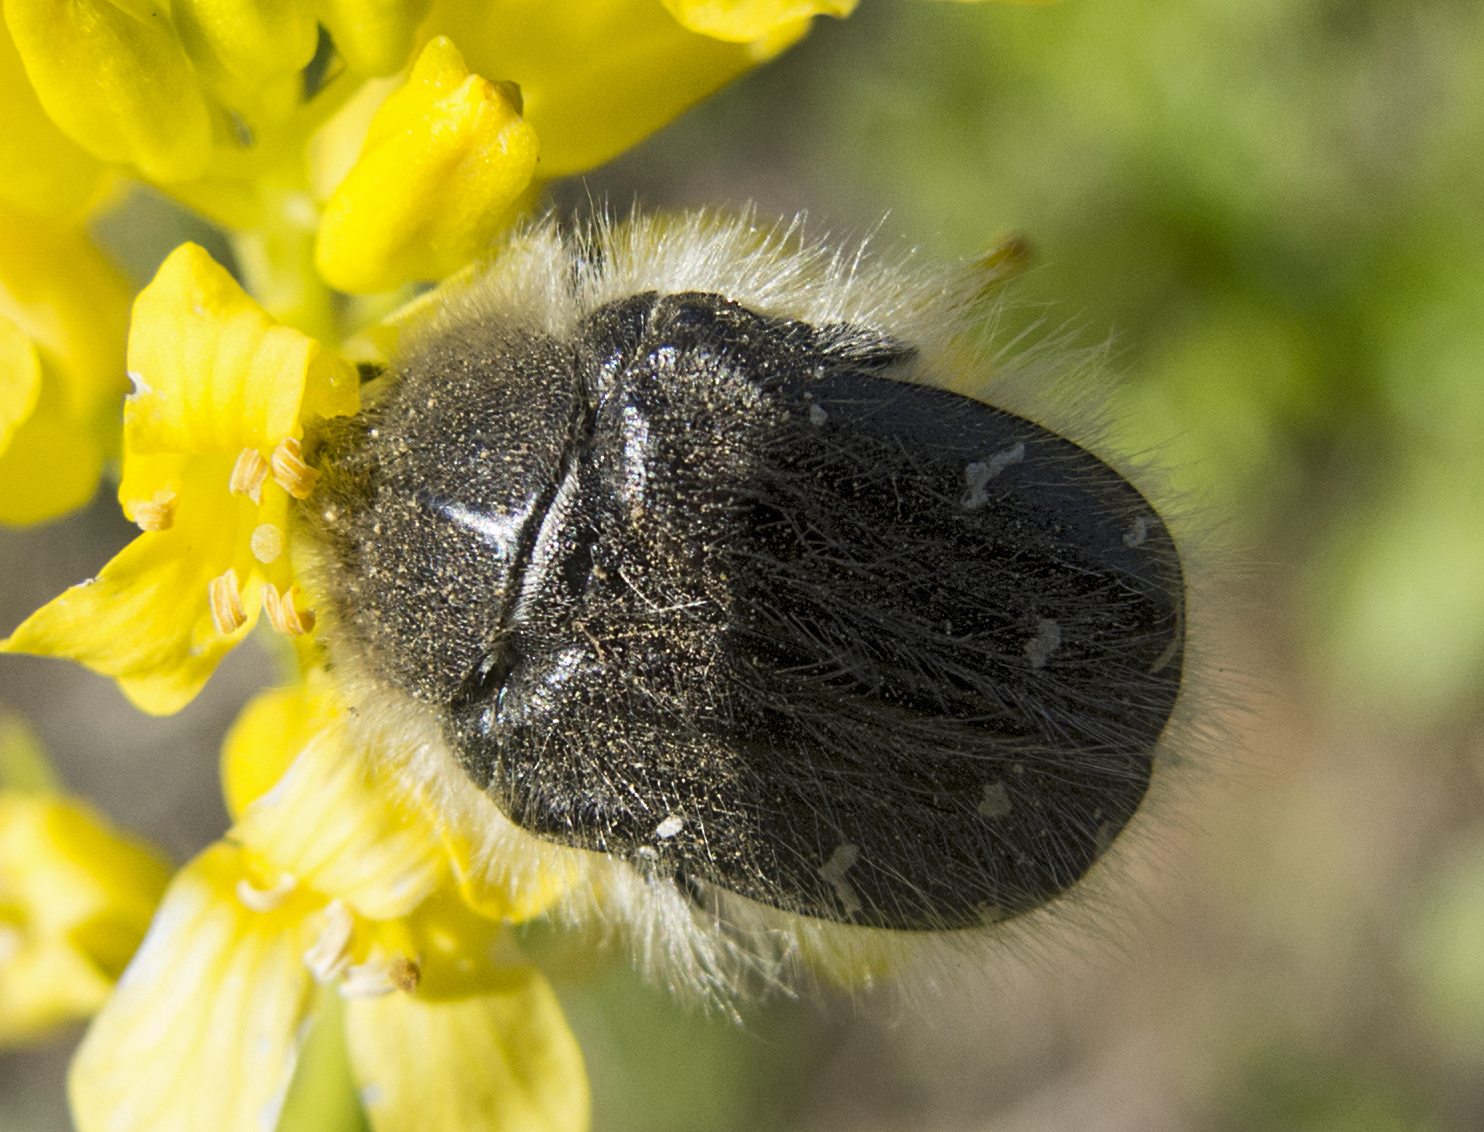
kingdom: Animalia
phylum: Arthropoda
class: Insecta
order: Coleoptera
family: Scarabaeidae
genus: Tropinota
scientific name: Tropinota hirta
